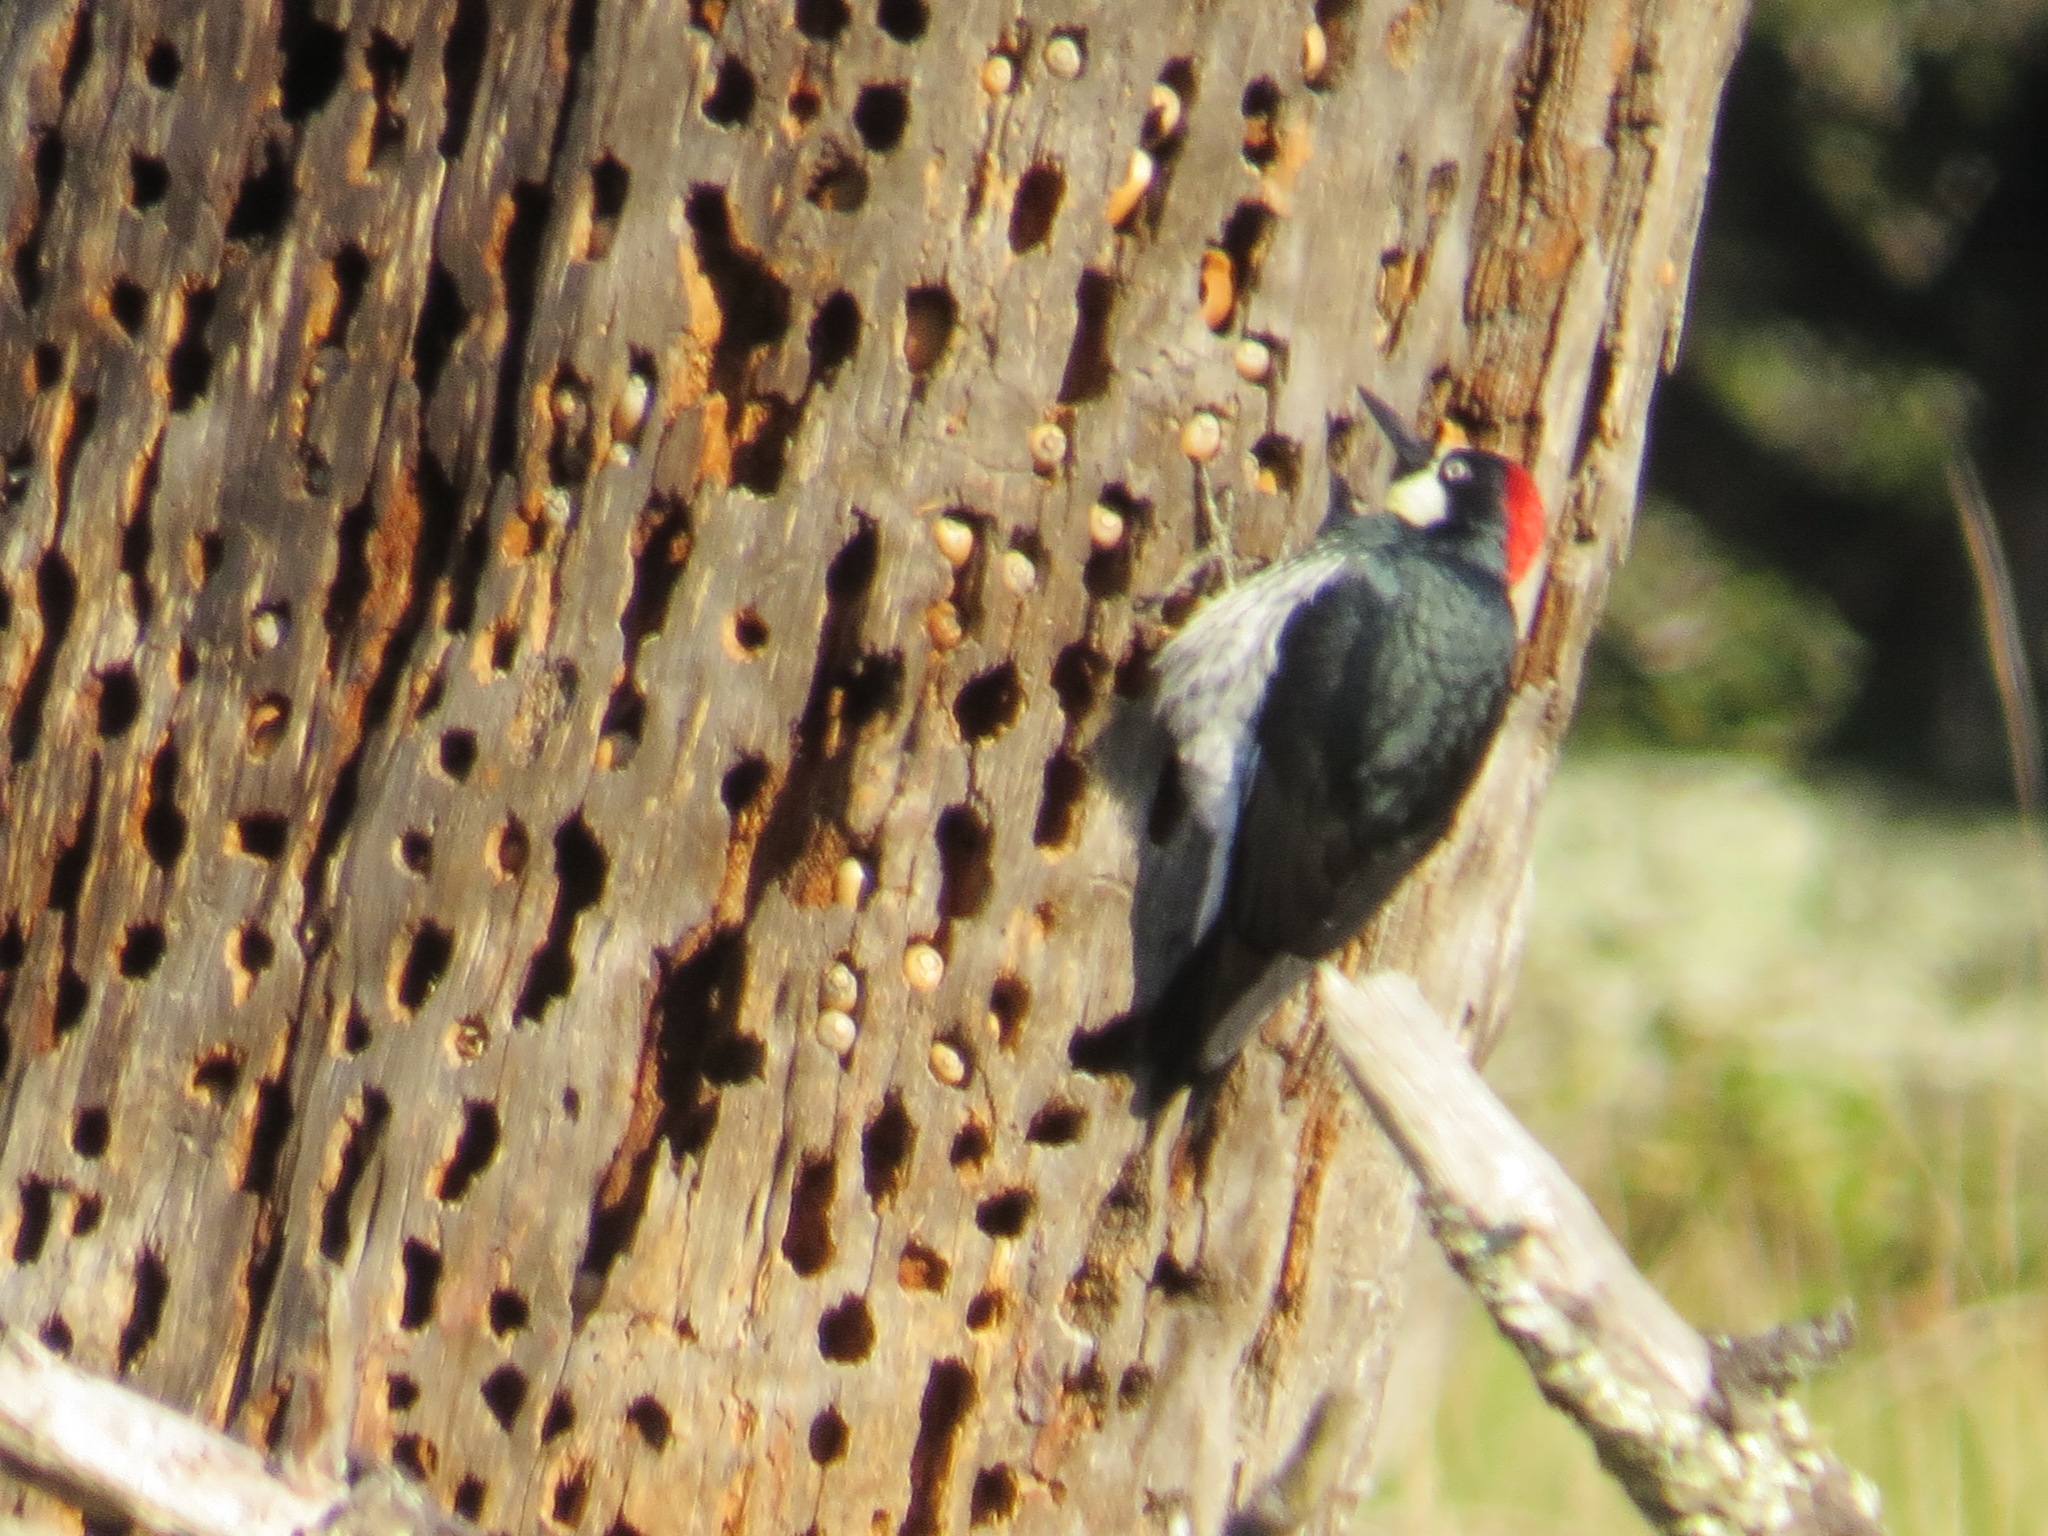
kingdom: Animalia
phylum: Chordata
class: Aves
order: Piciformes
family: Picidae
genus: Melanerpes
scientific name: Melanerpes formicivorus
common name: Acorn woodpecker
